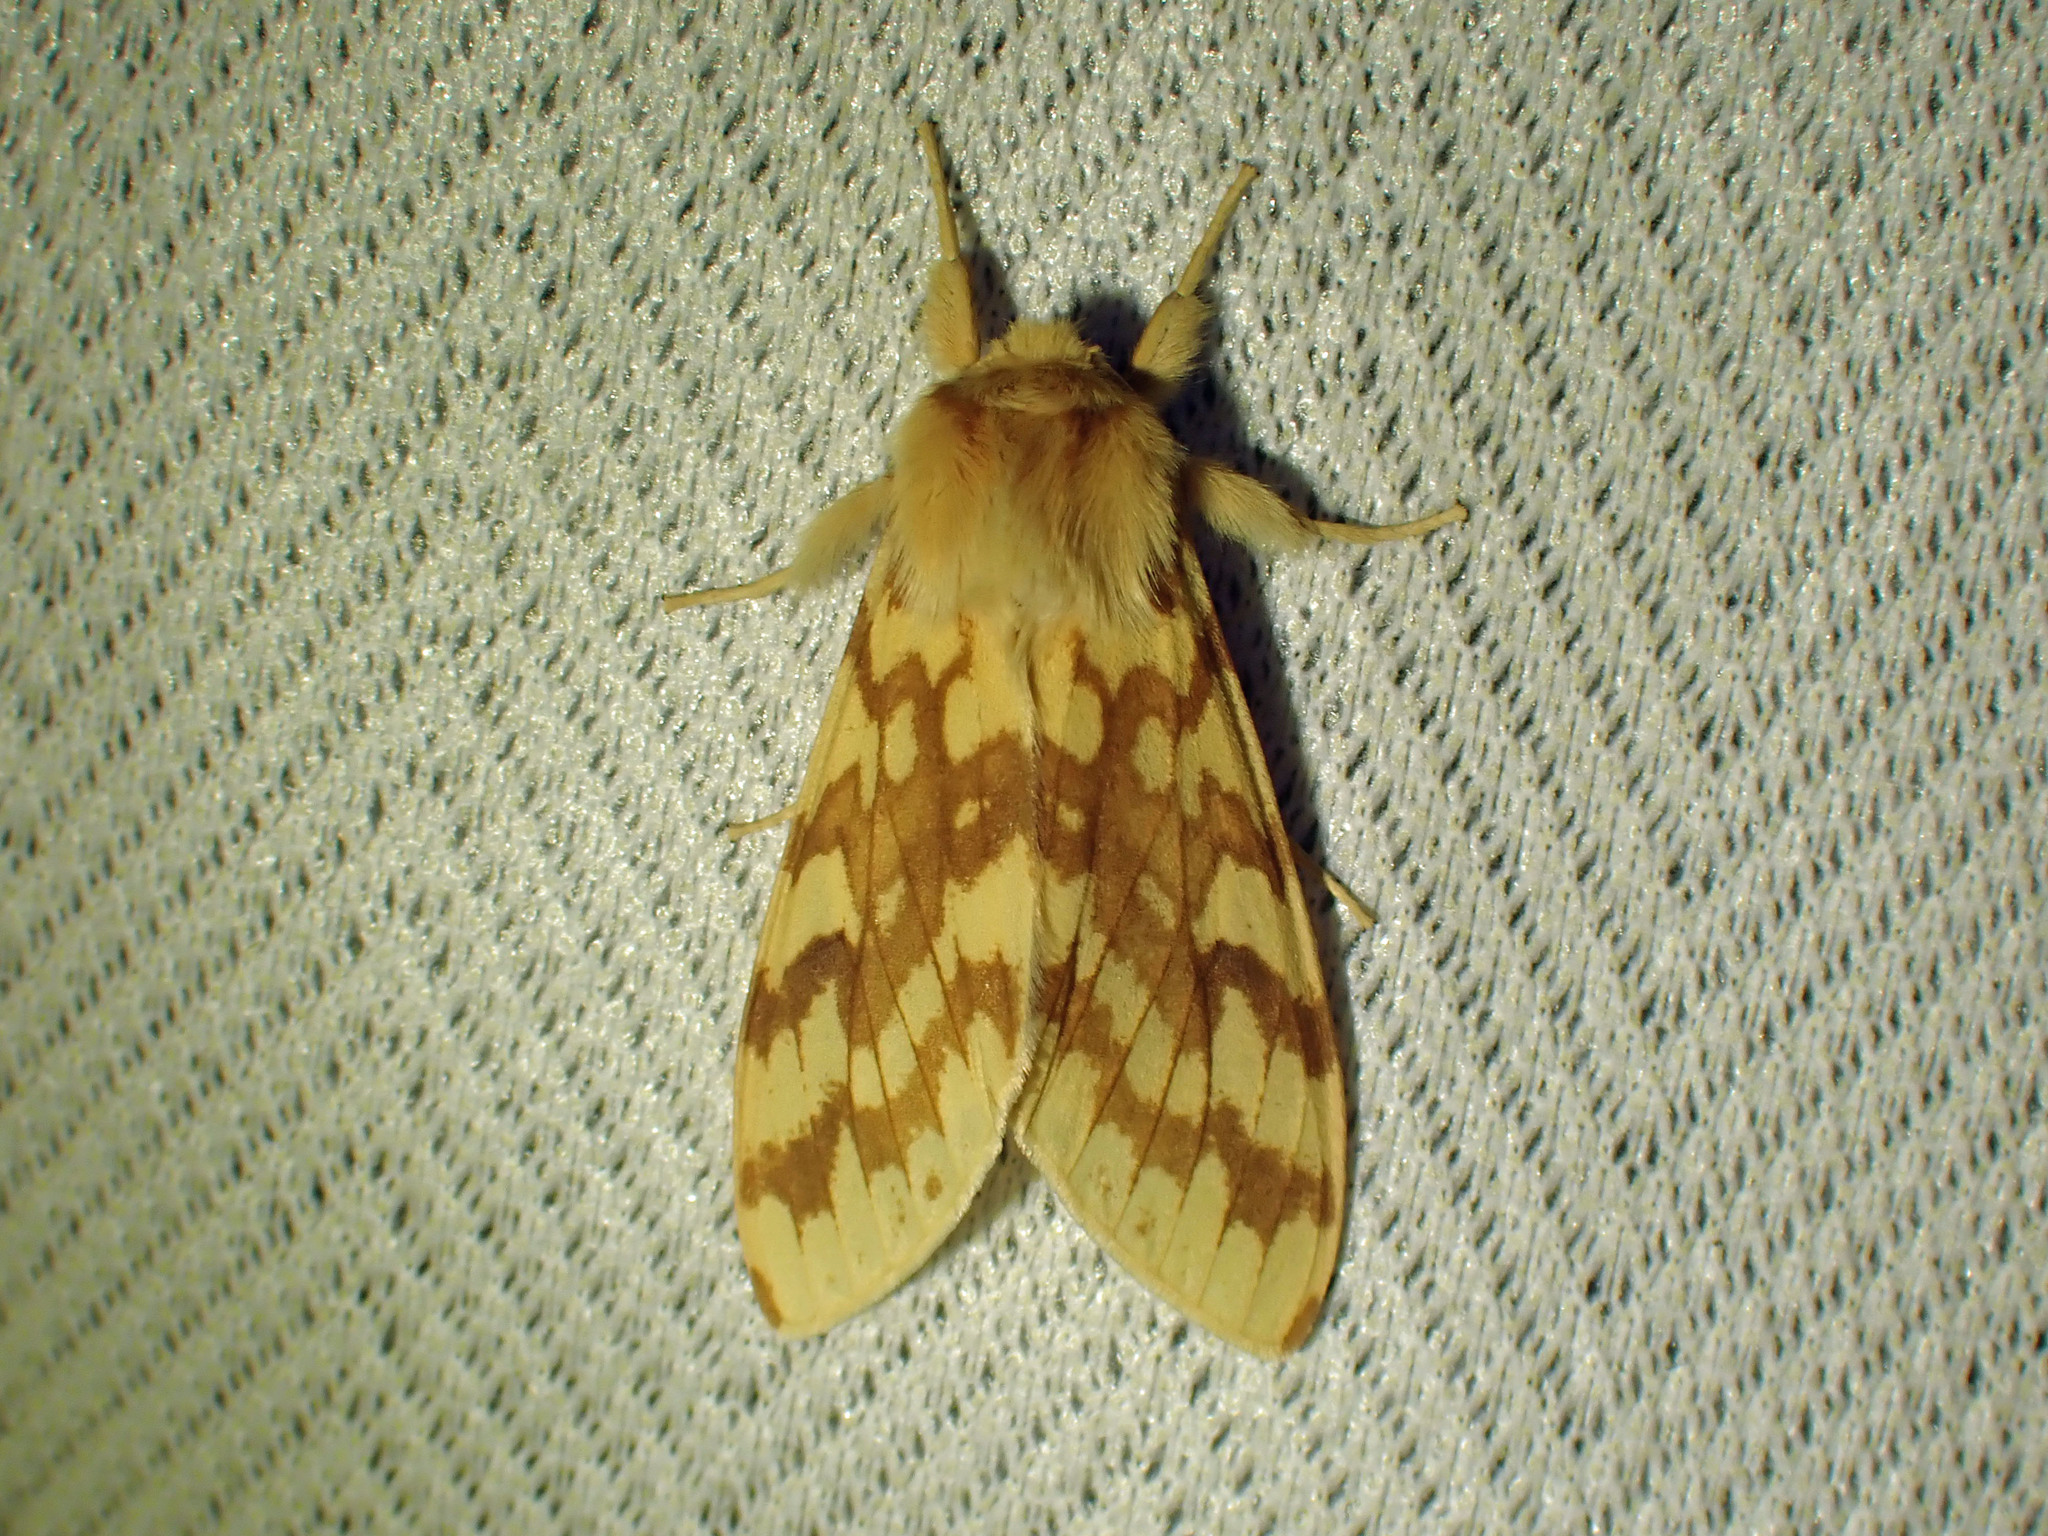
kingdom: Animalia
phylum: Arthropoda
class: Insecta
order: Lepidoptera
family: Erebidae
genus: Lophocampa
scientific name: Lophocampa maculata
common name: Spotted tussock moth
